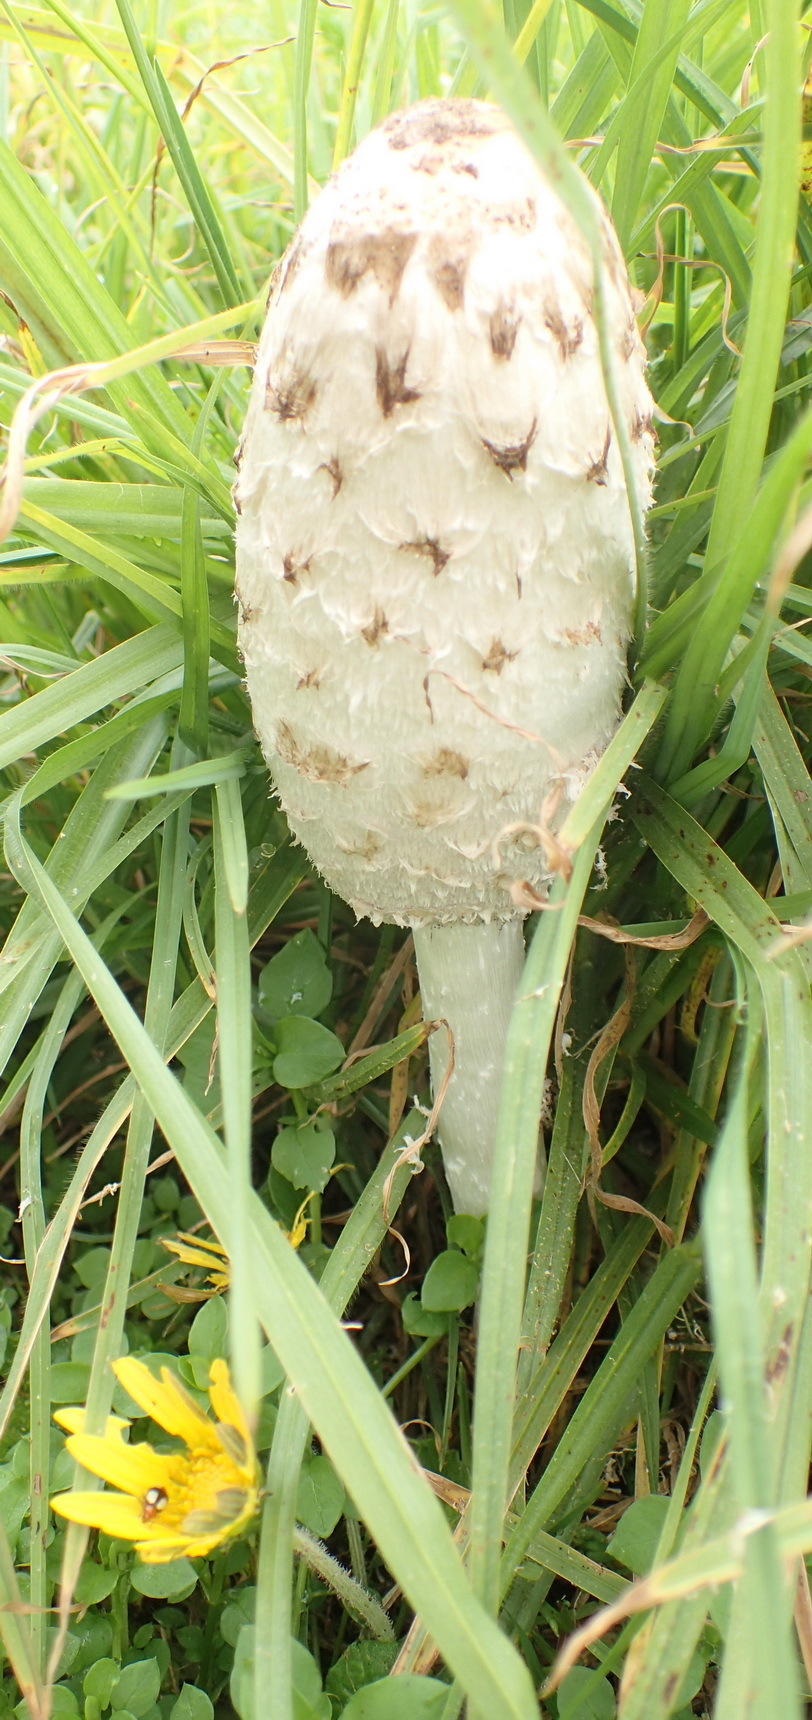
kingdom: Fungi
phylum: Basidiomycota
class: Agaricomycetes
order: Agaricales
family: Agaricaceae
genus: Coprinus
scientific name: Coprinus comatus
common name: Lawyer's wig
